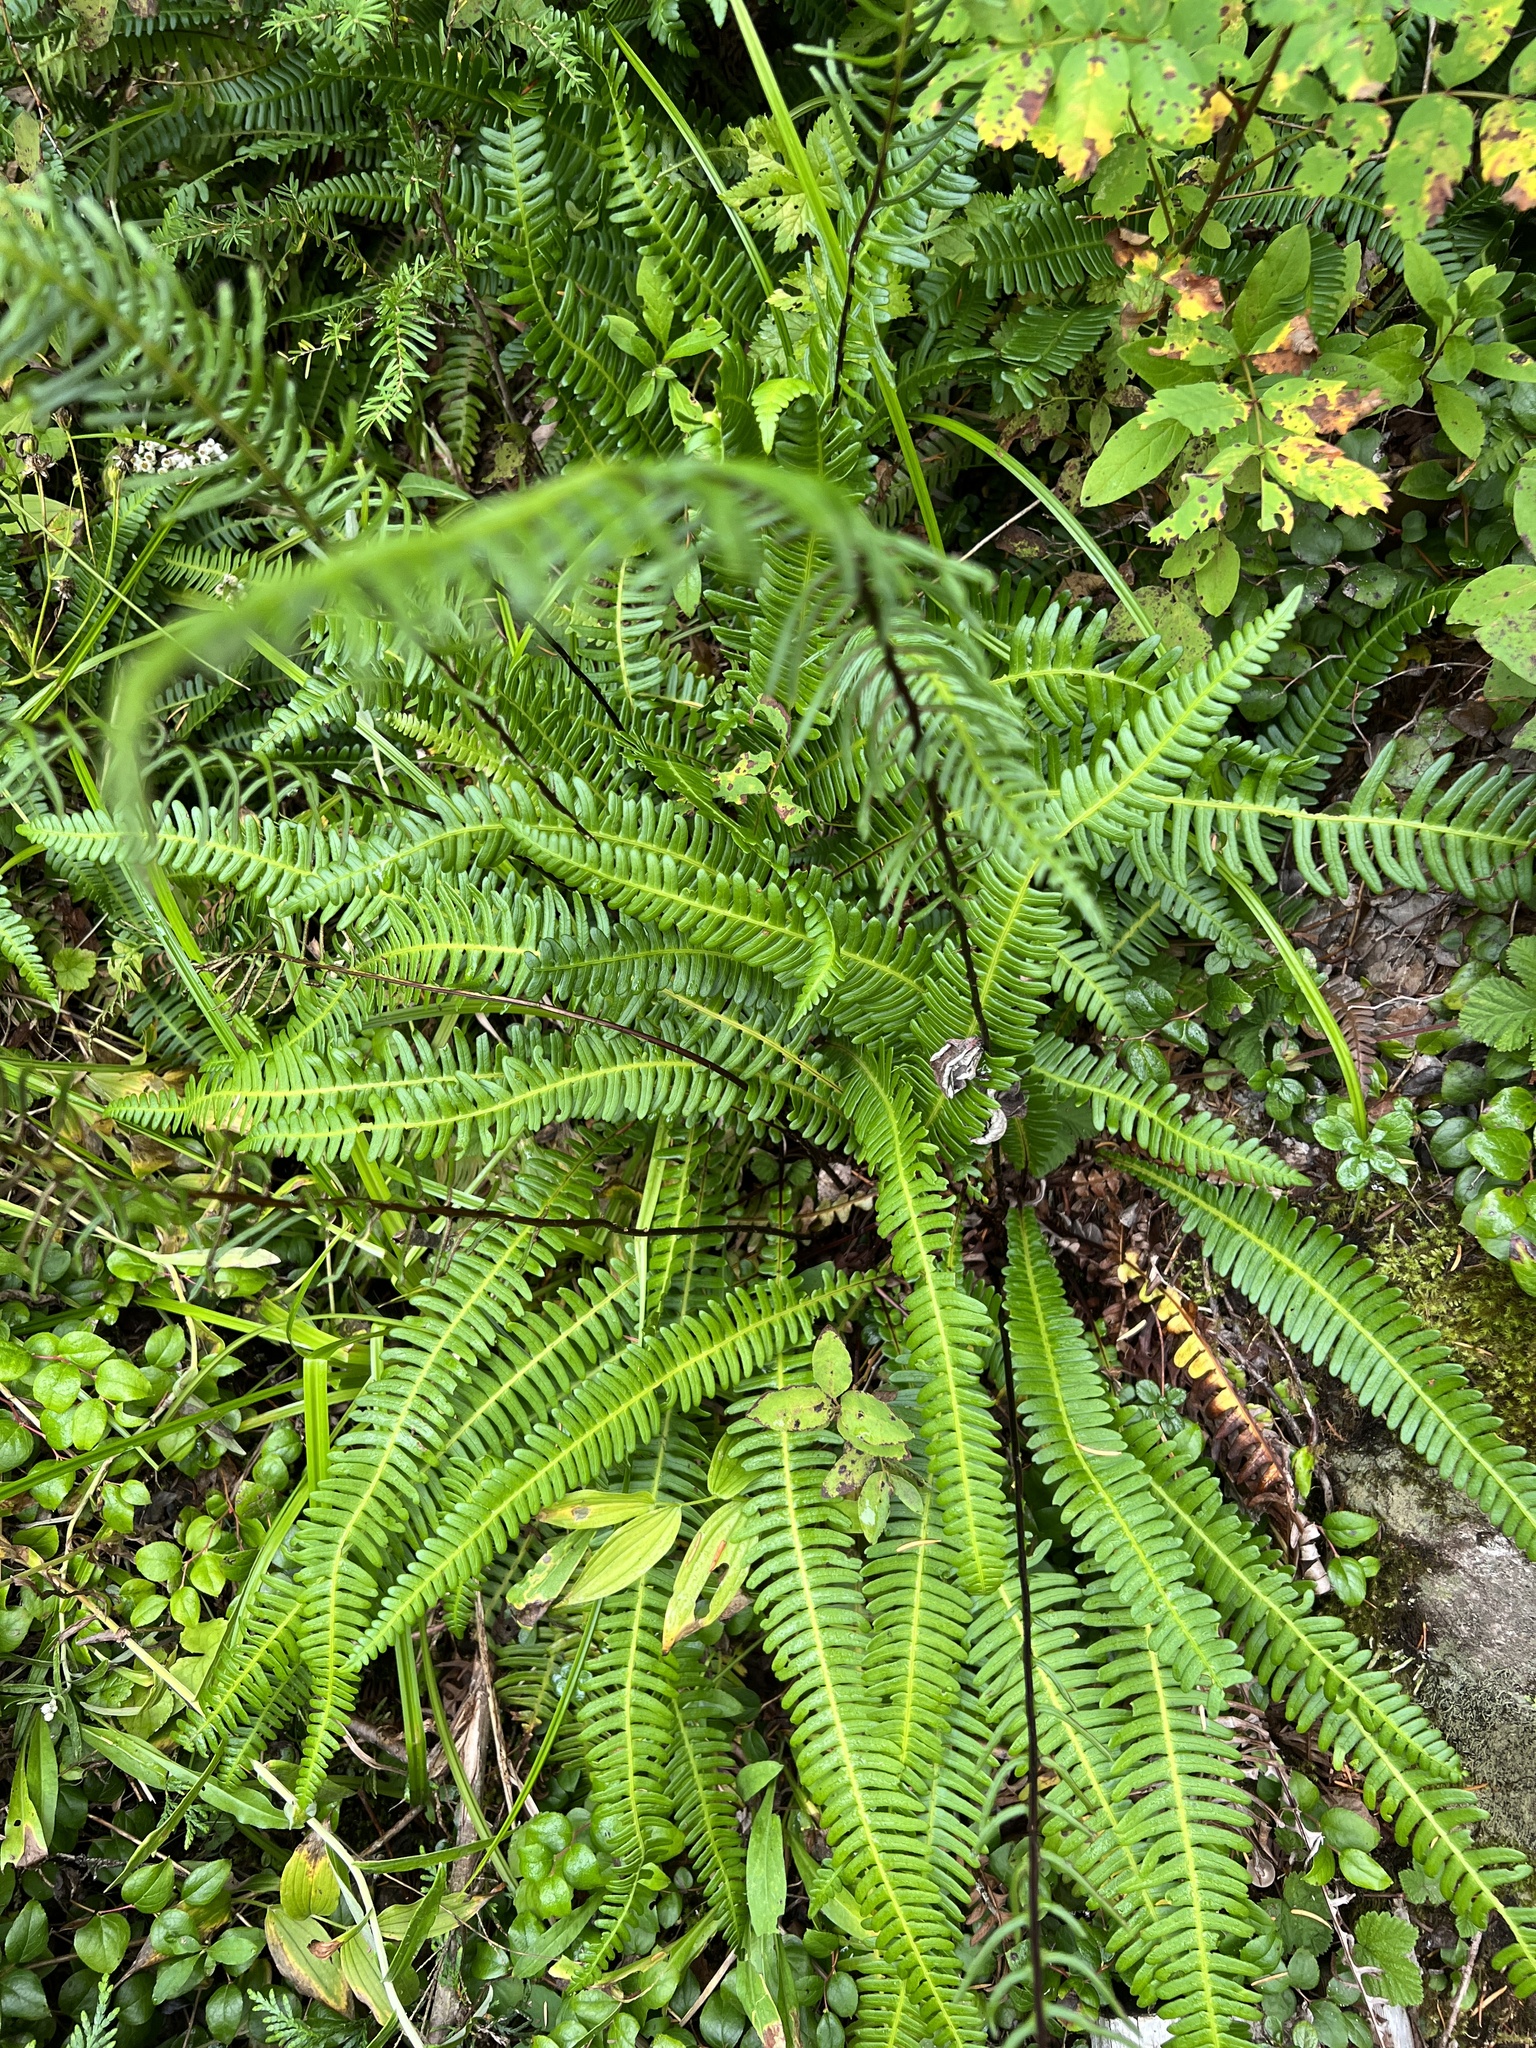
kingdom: Plantae
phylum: Tracheophyta
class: Polypodiopsida
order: Polypodiales
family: Blechnaceae
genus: Struthiopteris
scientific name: Struthiopteris spicant
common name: Deer fern
